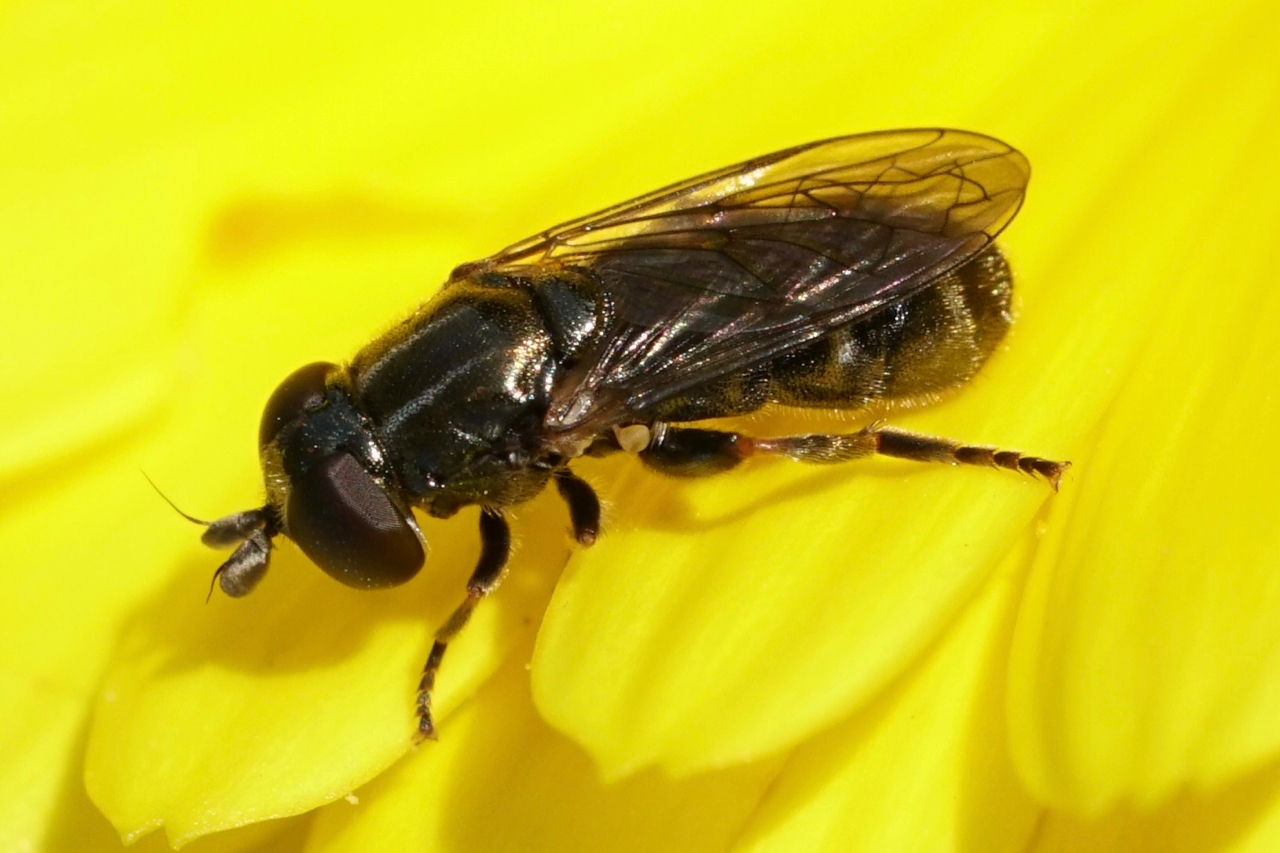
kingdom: Animalia
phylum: Arthropoda
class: Insecta
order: Diptera
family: Syrphidae
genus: Eumerus
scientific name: Eumerus
